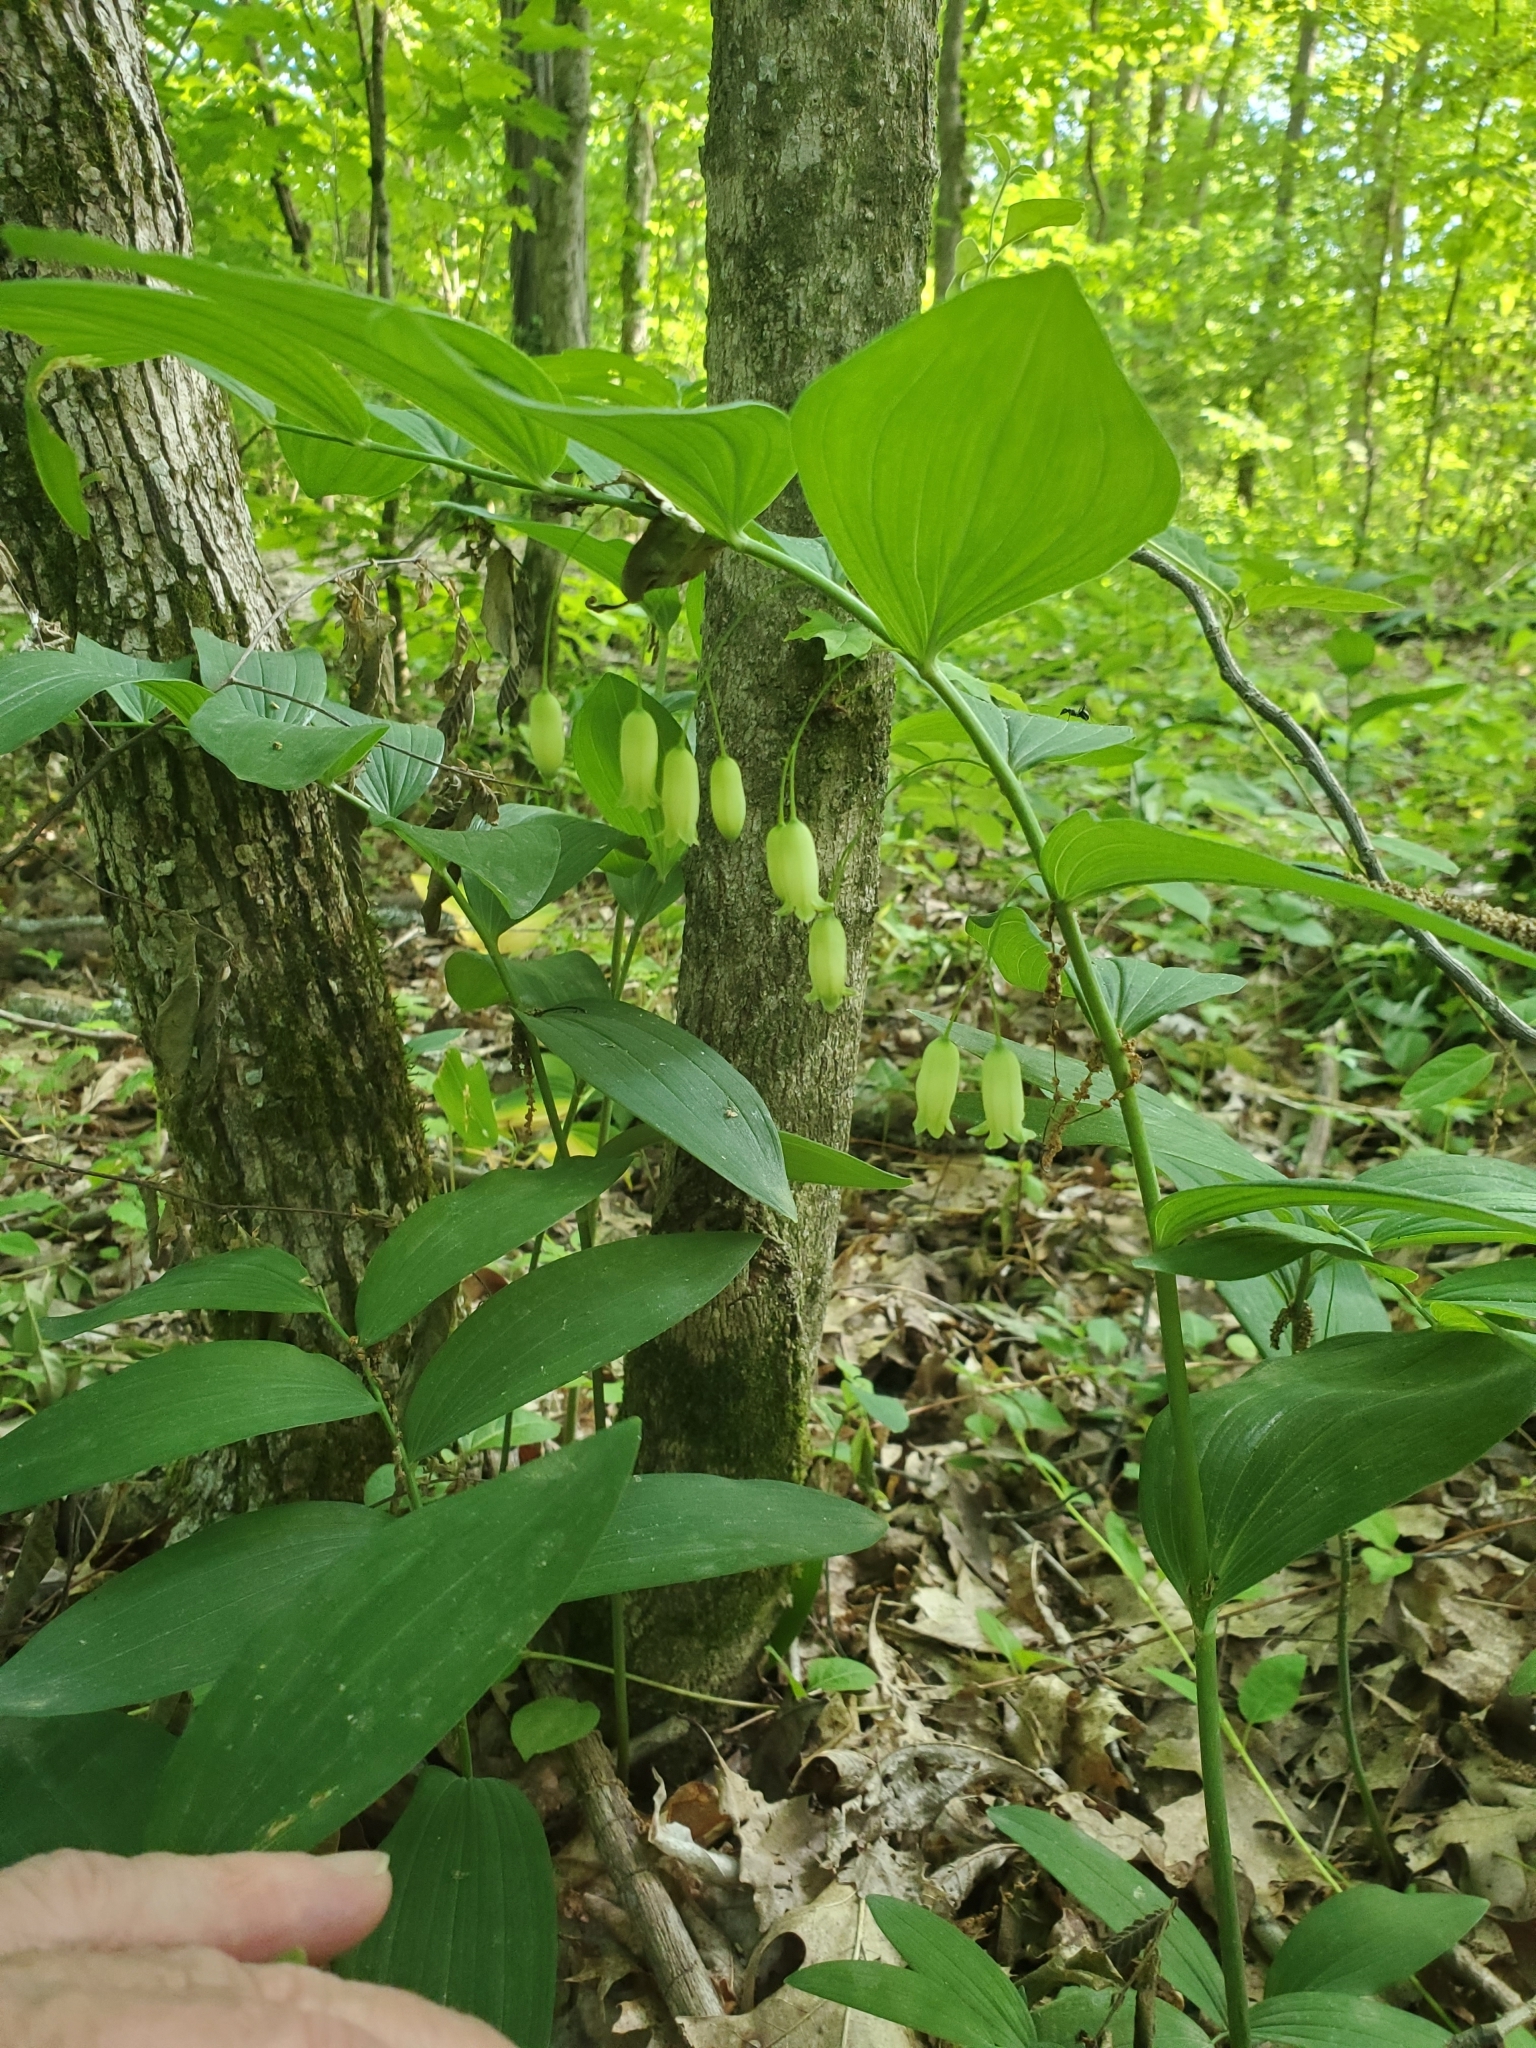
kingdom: Plantae
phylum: Tracheophyta
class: Liliopsida
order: Asparagales
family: Asparagaceae
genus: Polygonatum
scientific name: Polygonatum biflorum
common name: American solomon's-seal
